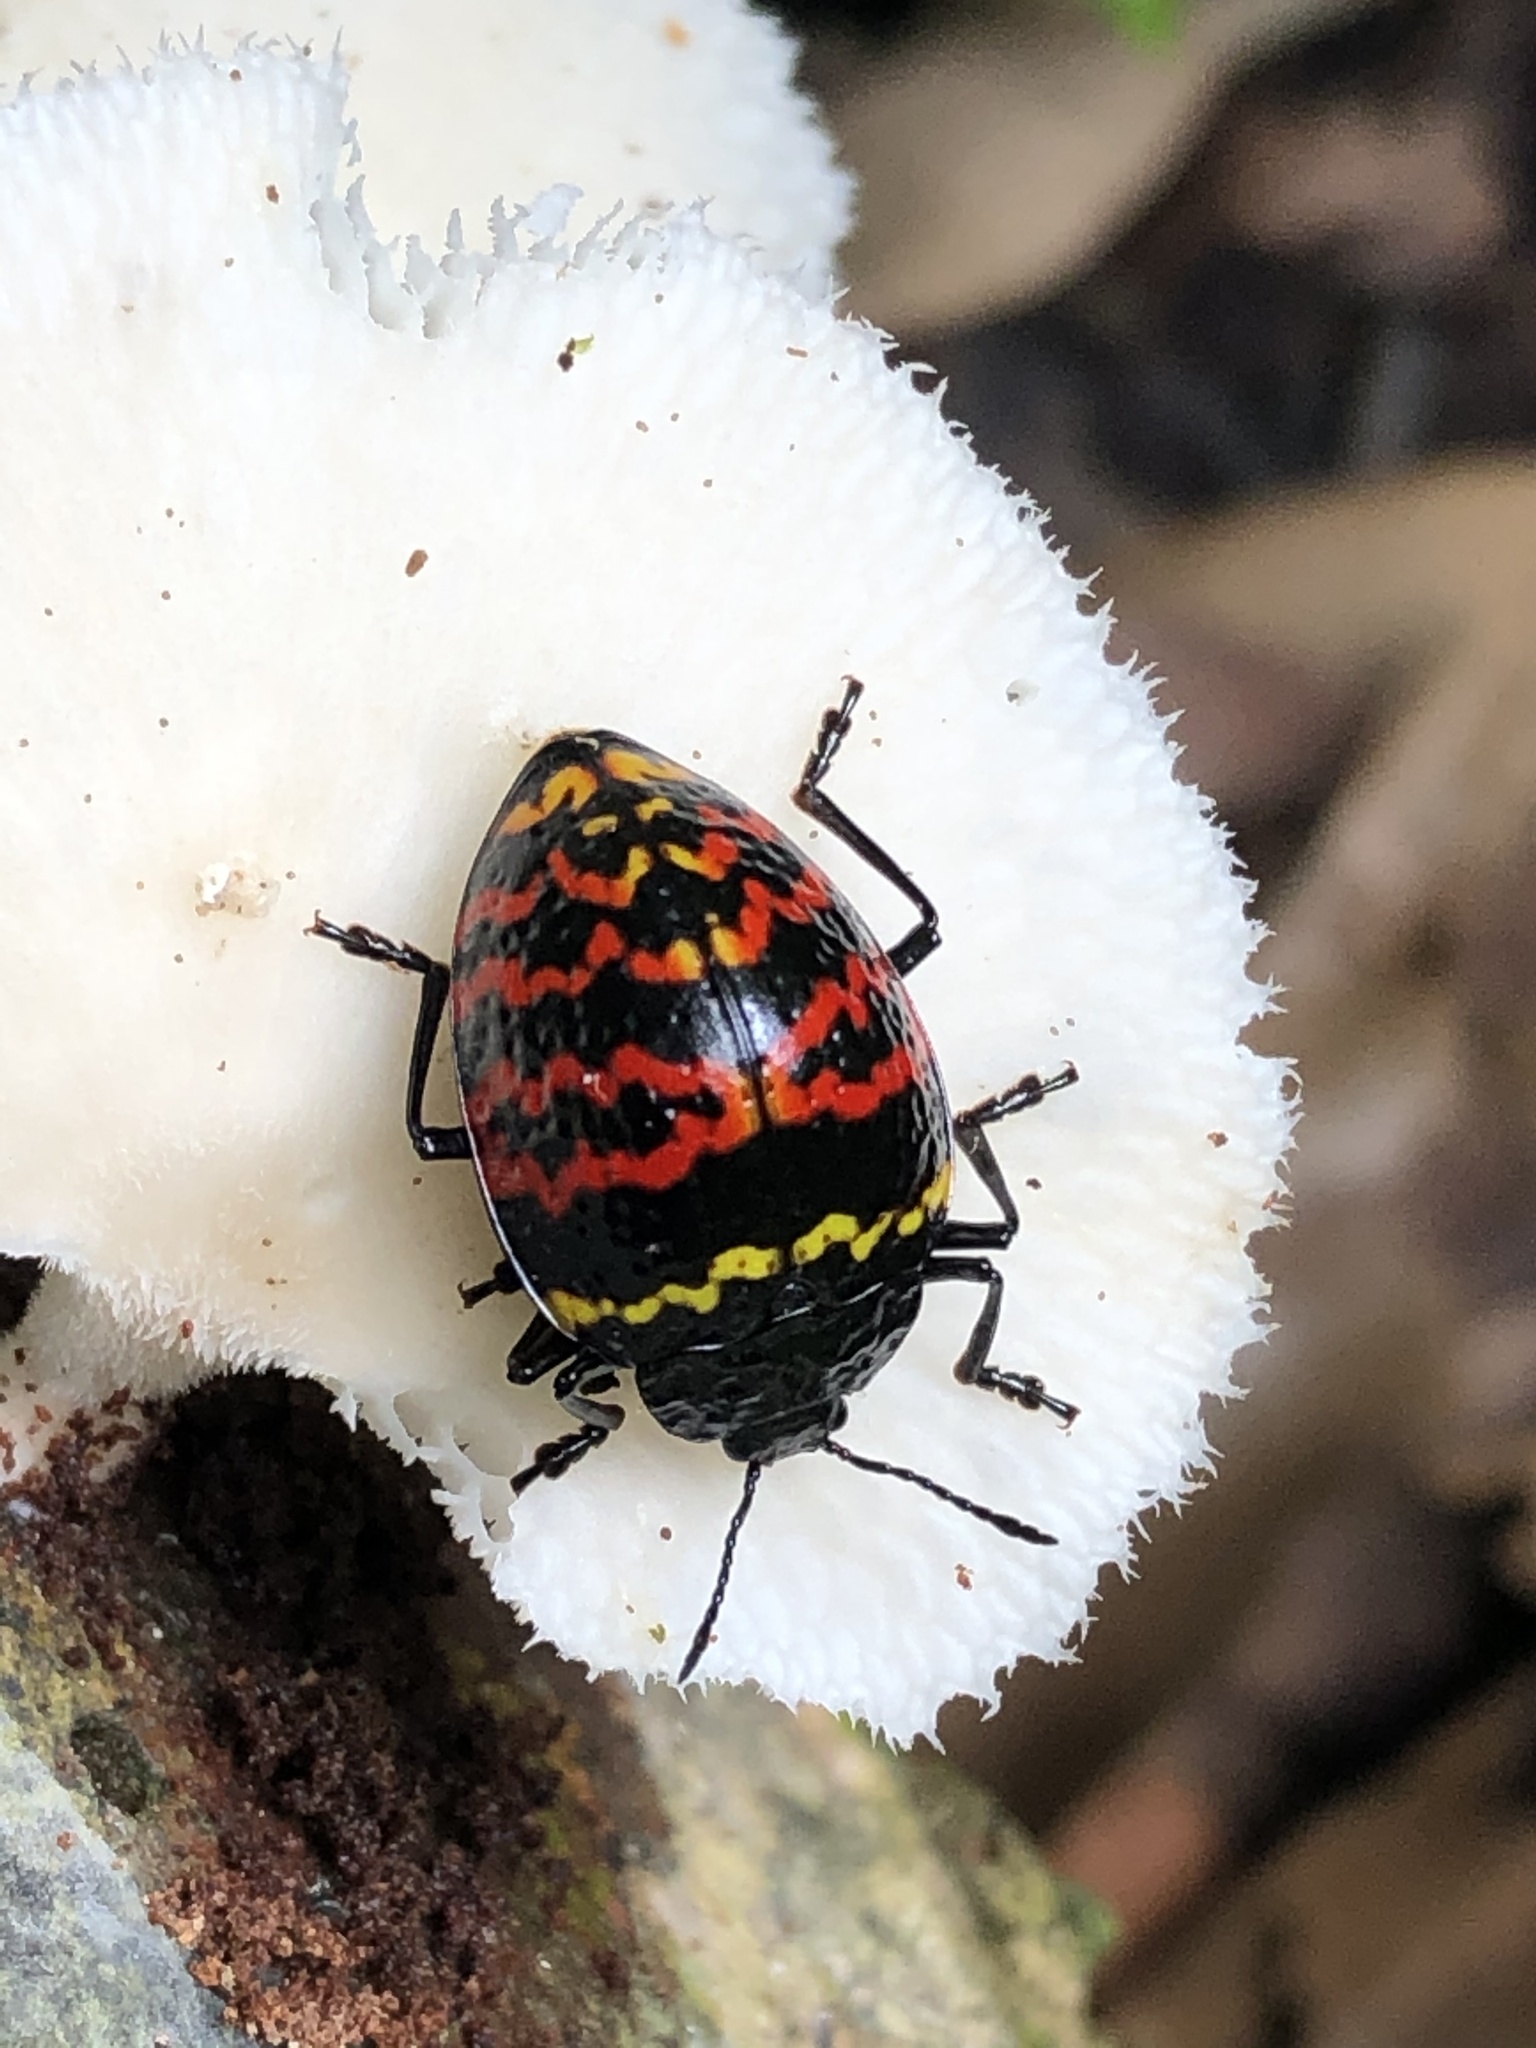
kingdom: Animalia
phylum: Arthropoda
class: Insecta
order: Coleoptera
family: Erotylidae
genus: Erotylus
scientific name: Erotylus
